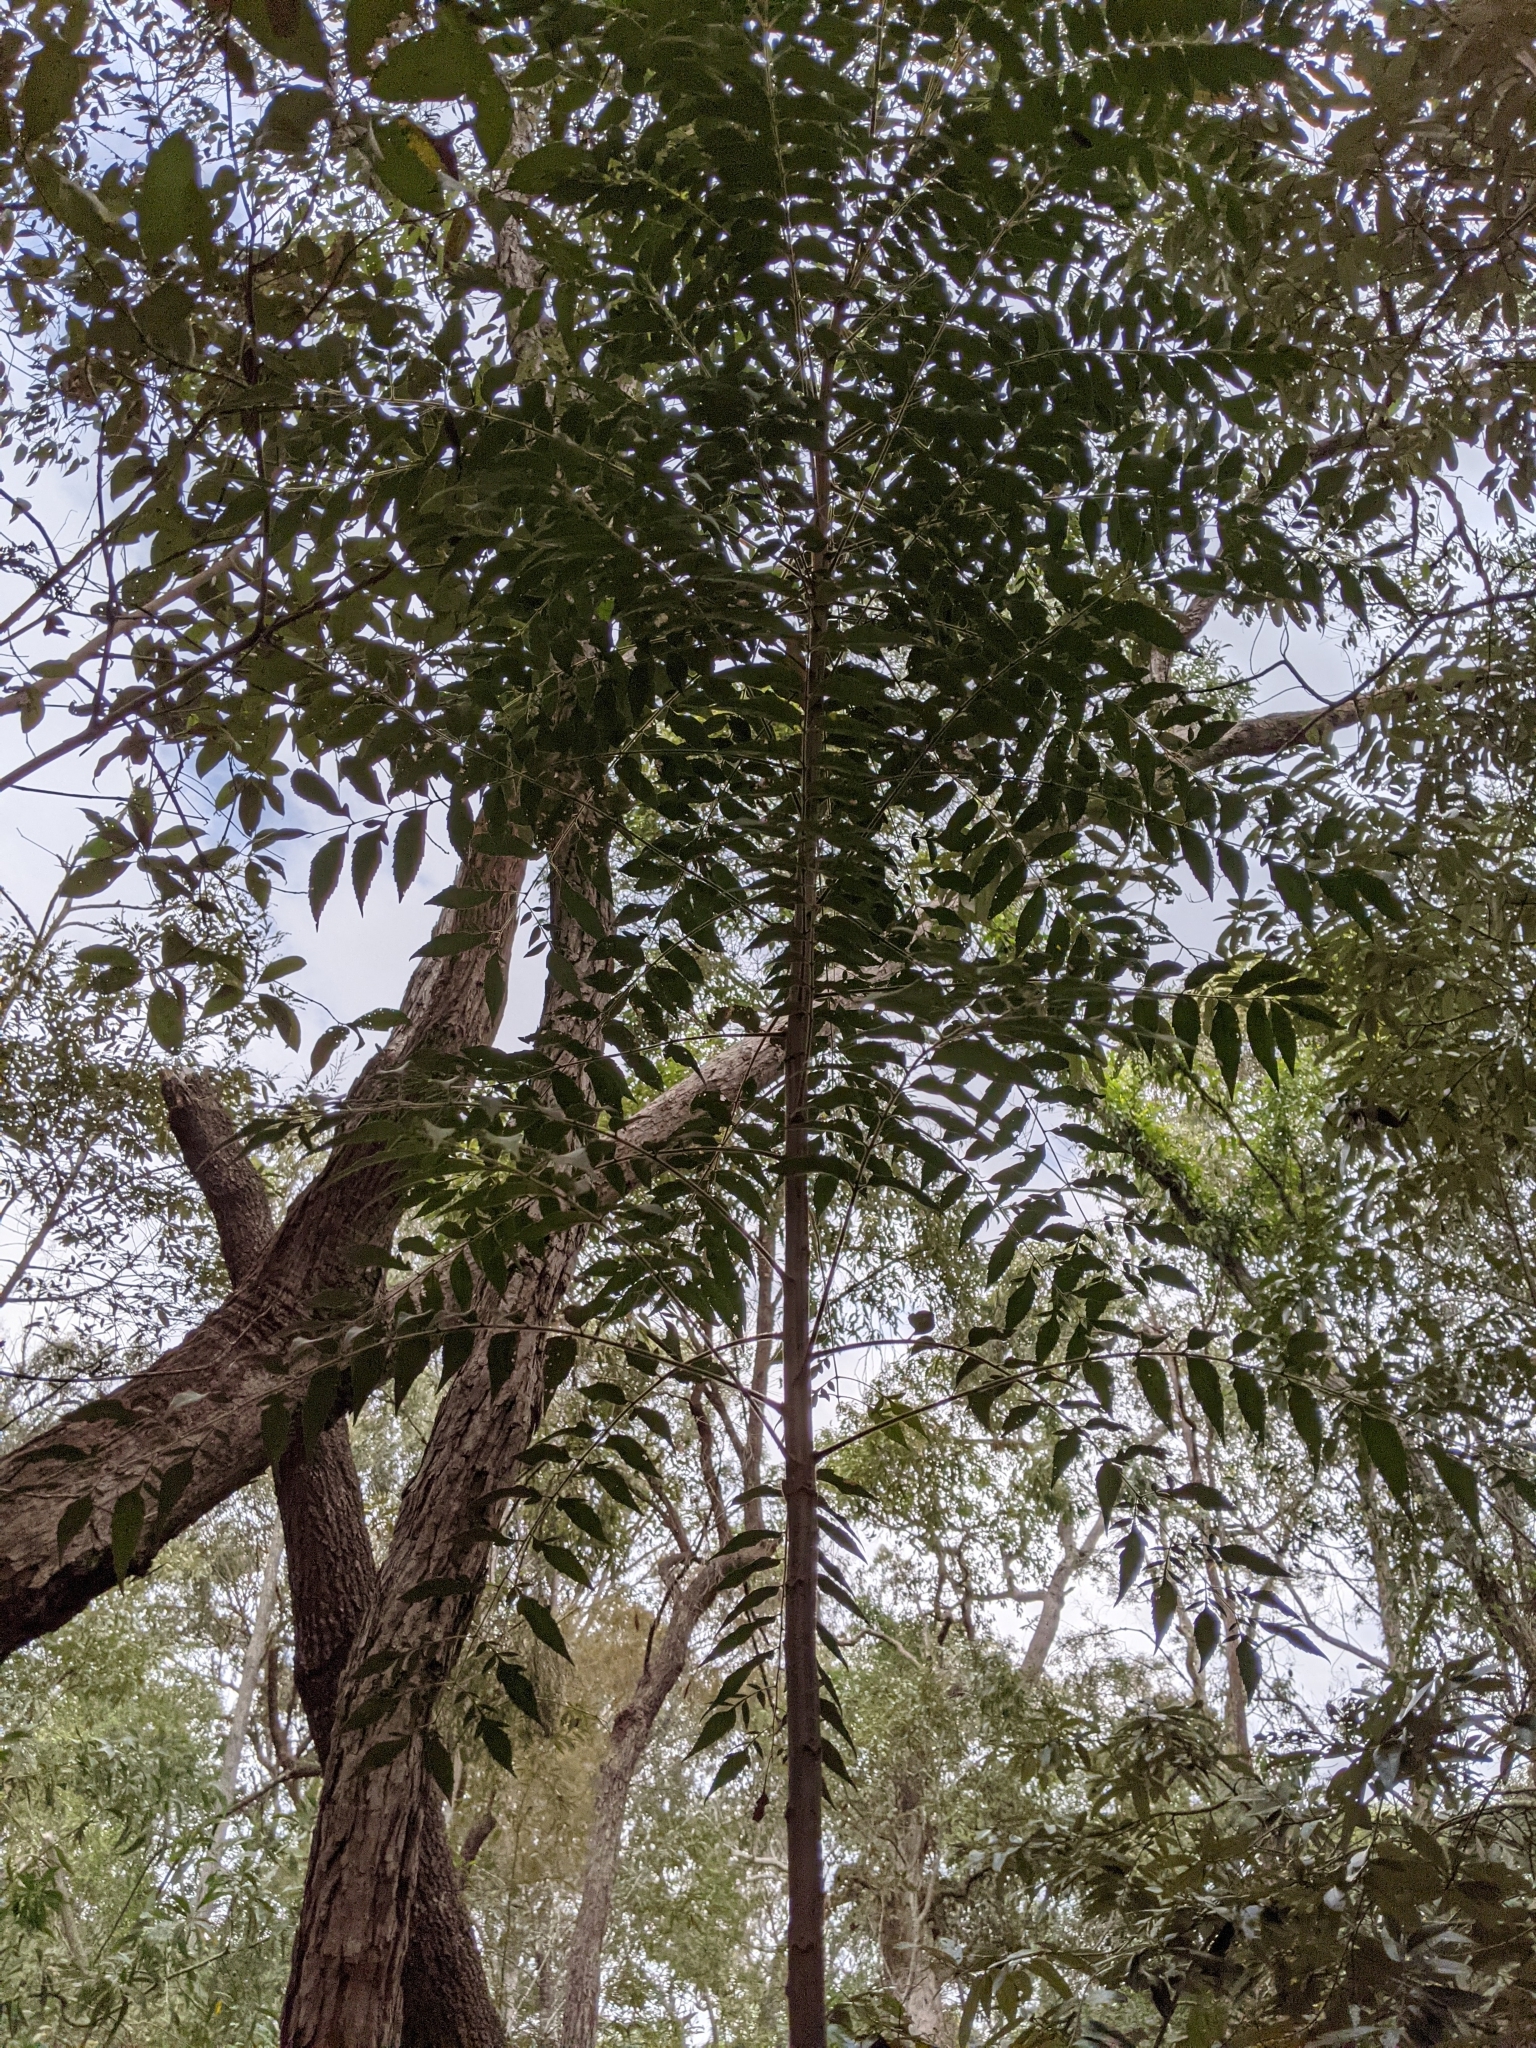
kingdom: Plantae
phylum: Tracheophyta
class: Magnoliopsida
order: Sapindales
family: Sapindaceae
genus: Jagera
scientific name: Jagera pseudorhus
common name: Fern-leaf-tamarind
